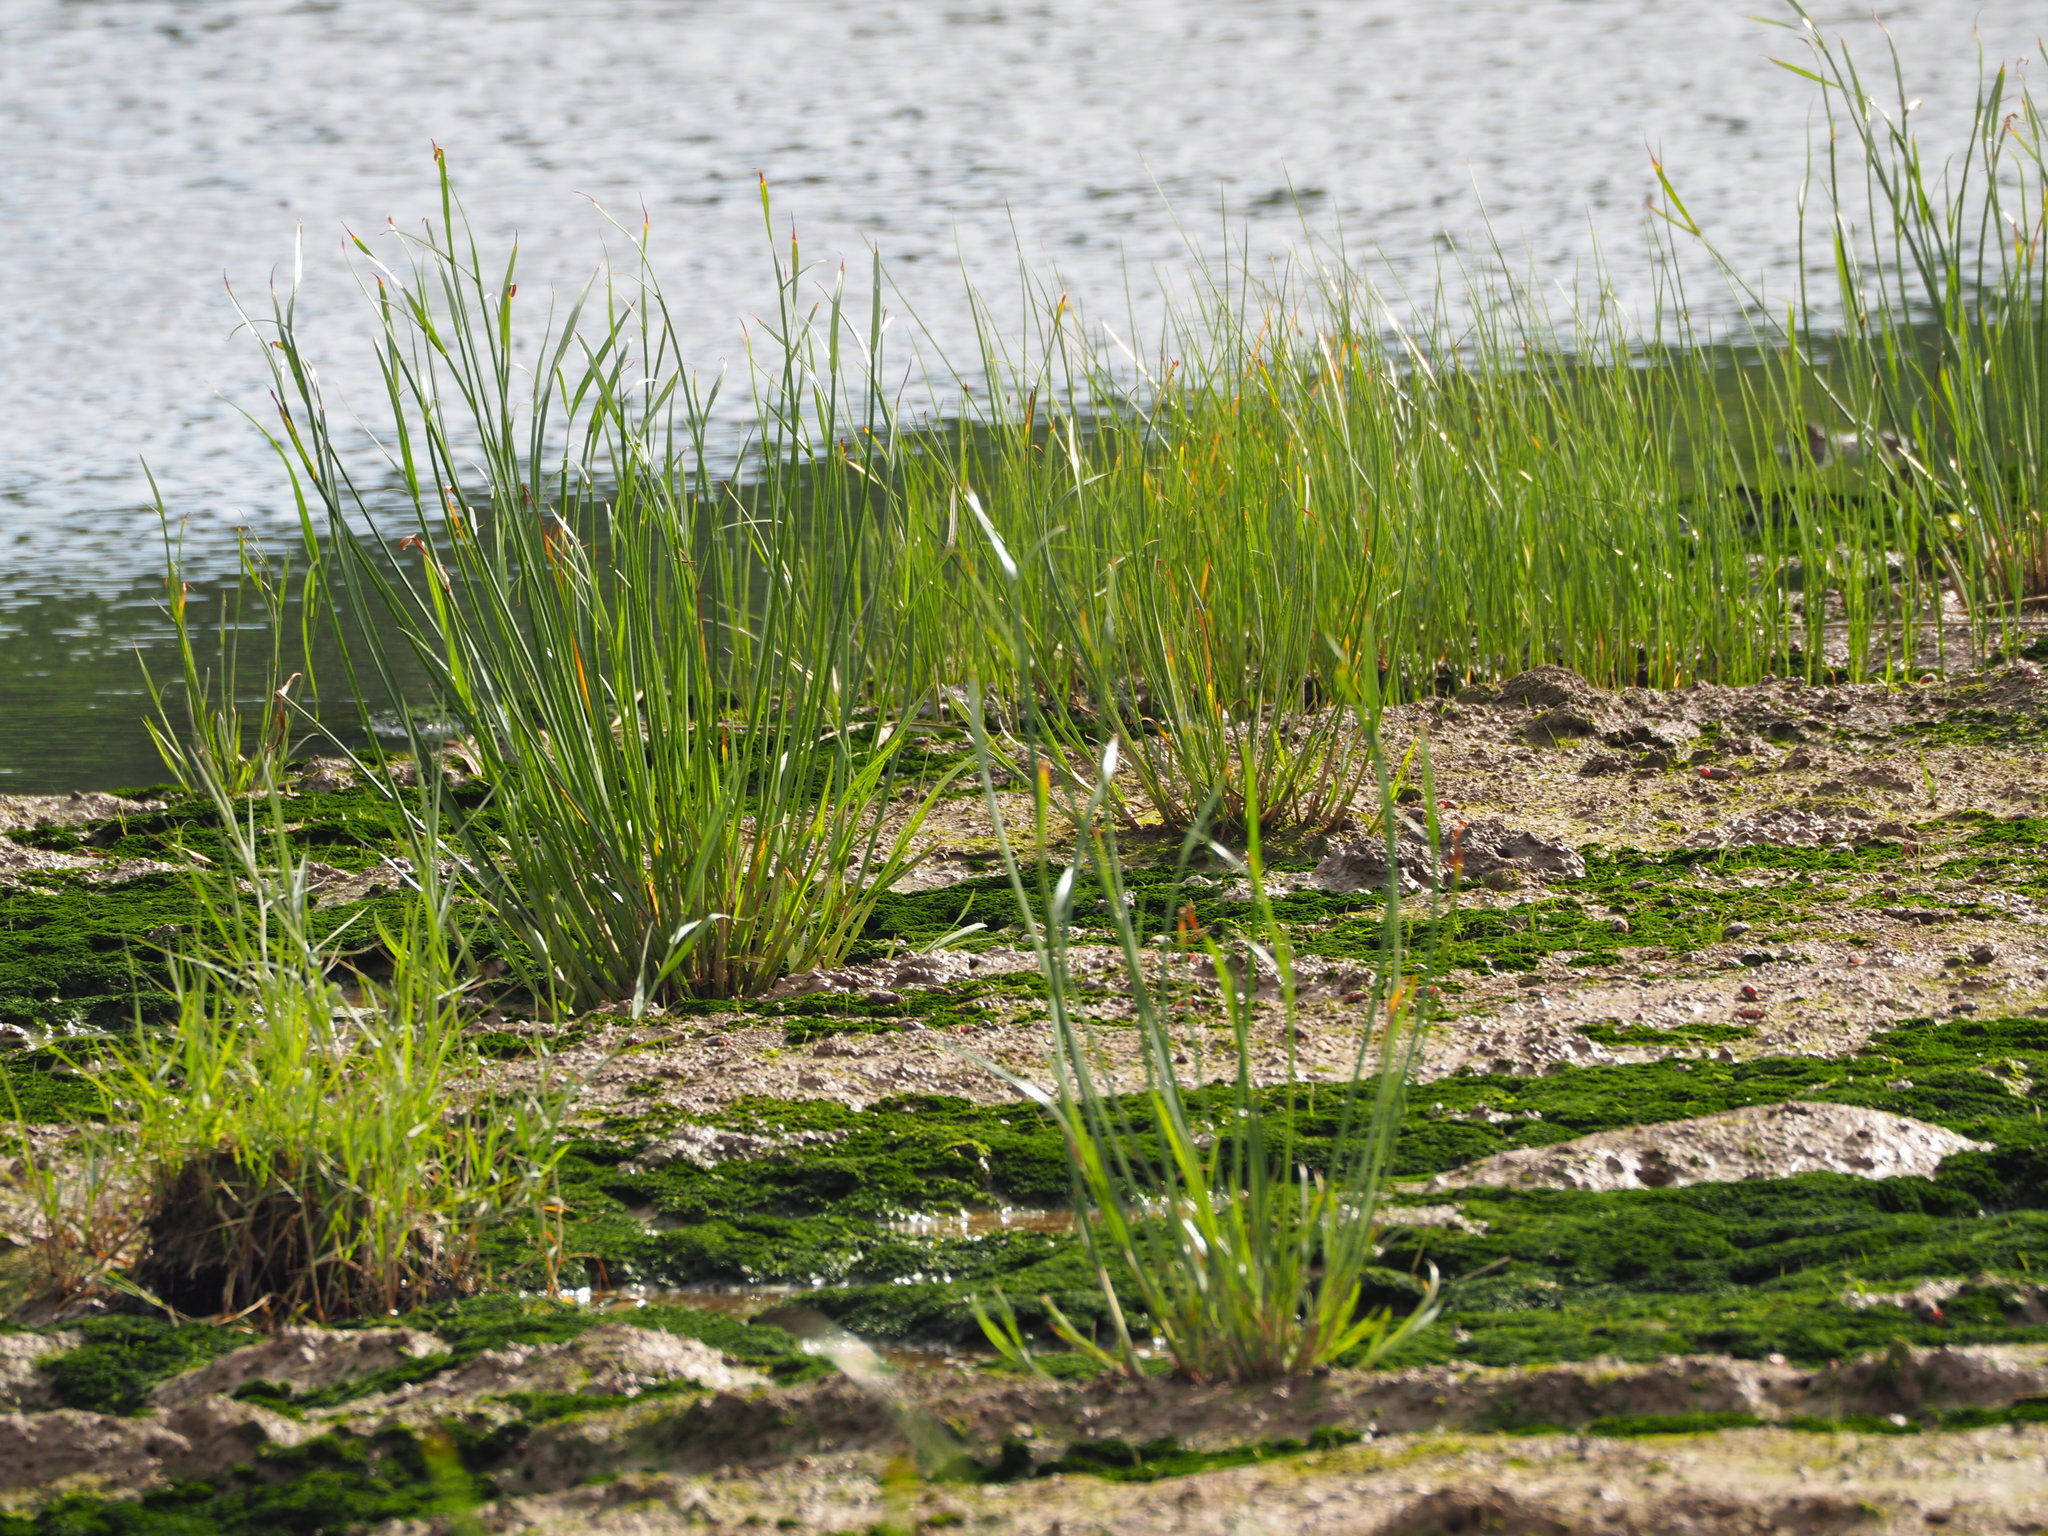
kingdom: Plantae
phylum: Tracheophyta
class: Liliopsida
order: Poales
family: Cyperaceae
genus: Cyperus
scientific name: Cyperus malaccensis
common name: Shichito matgrass
